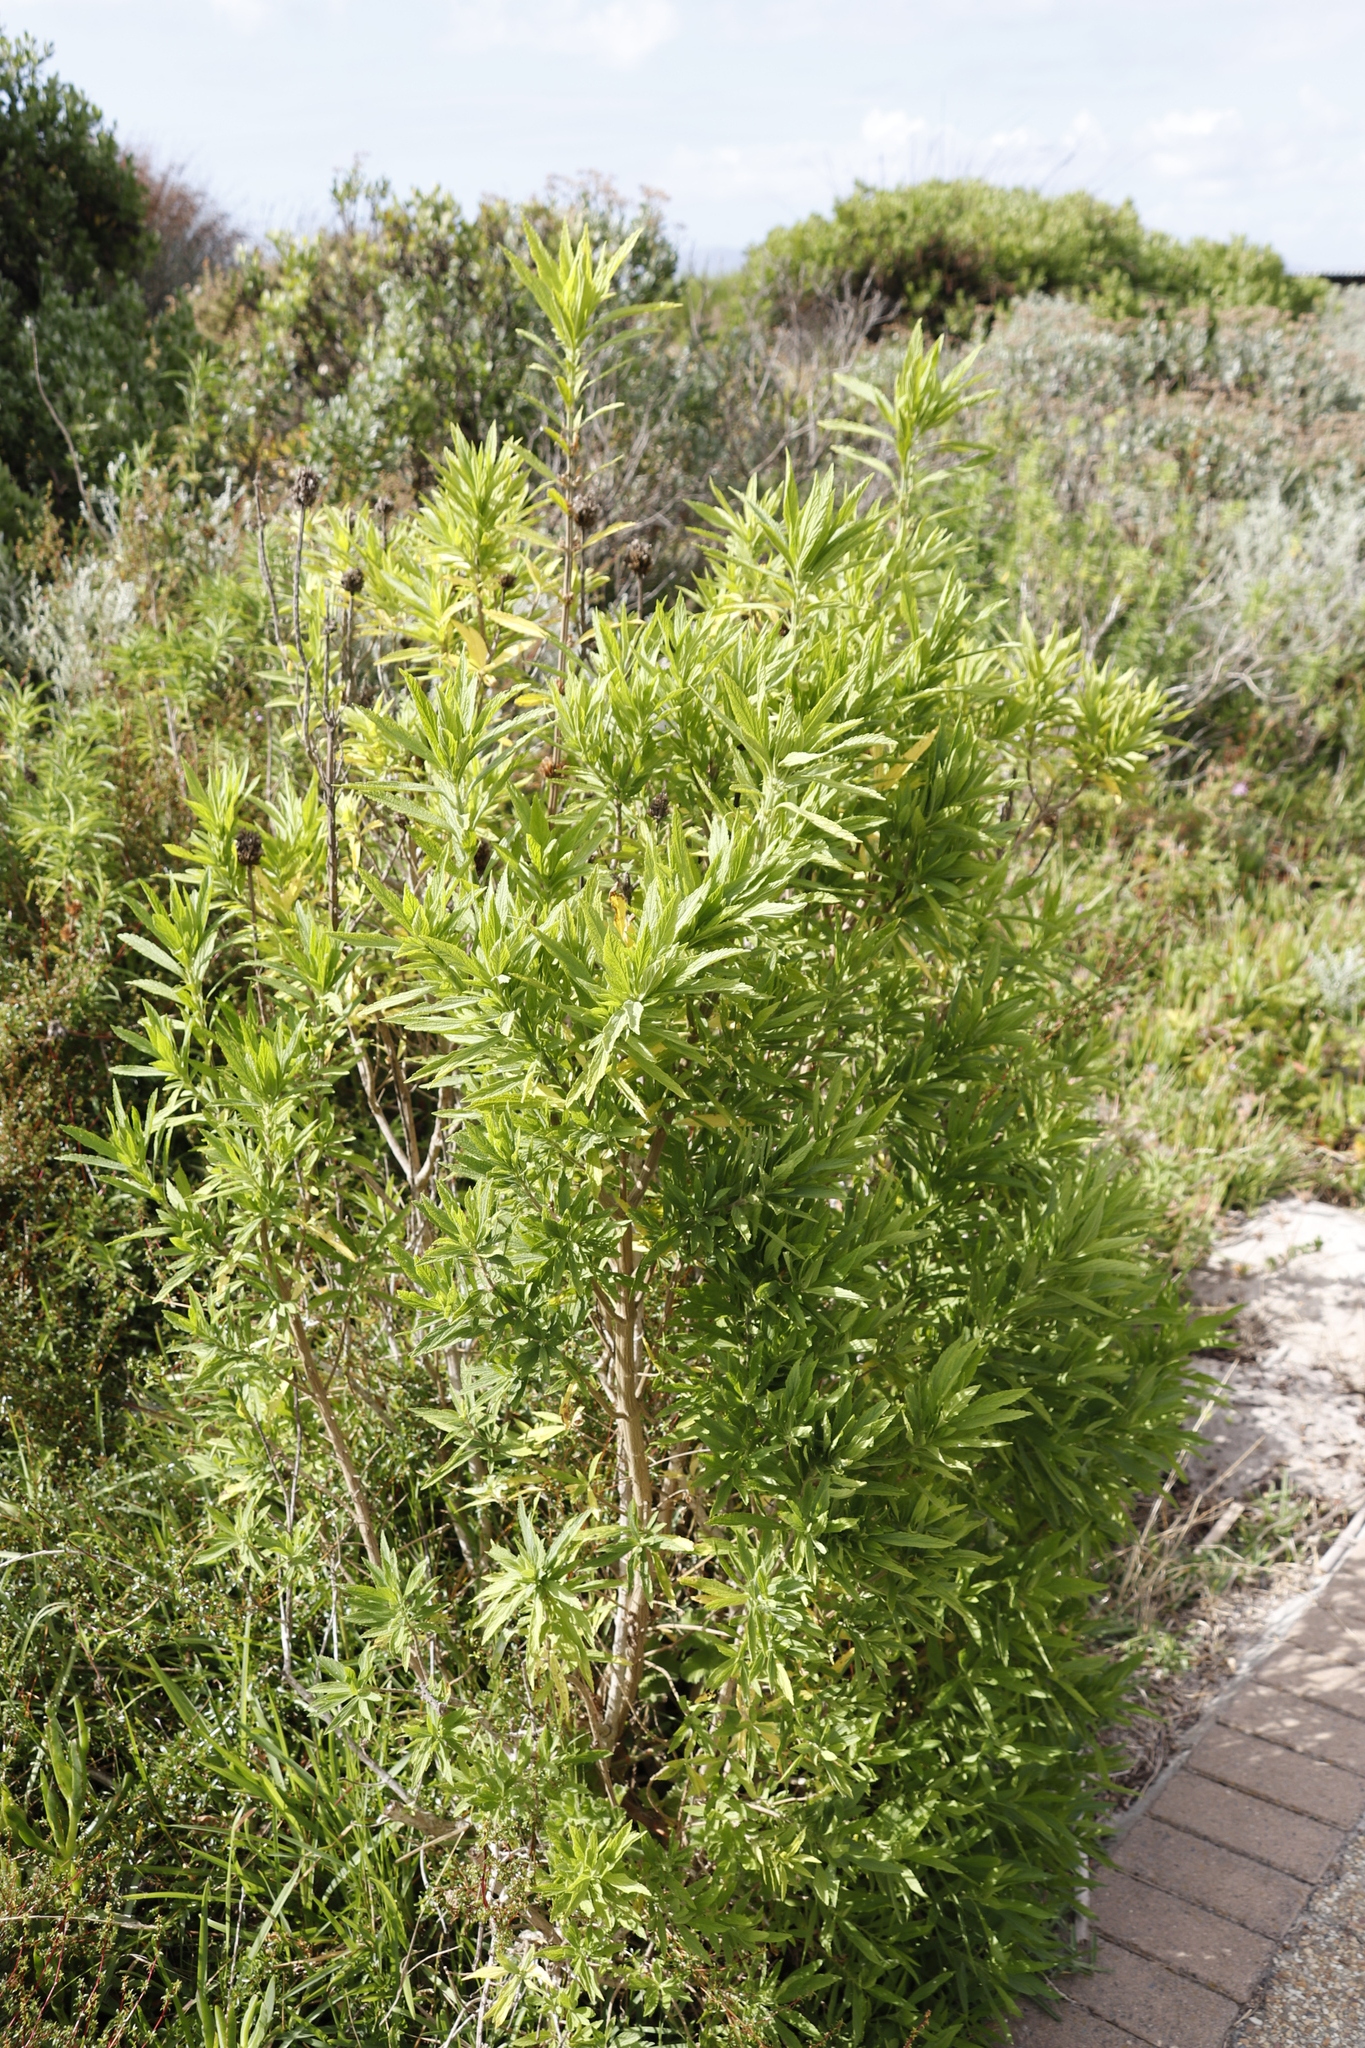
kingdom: Plantae
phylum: Tracheophyta
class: Magnoliopsida
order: Lamiales
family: Lamiaceae
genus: Leonotis
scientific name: Leonotis leonurus
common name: Lion's ear
